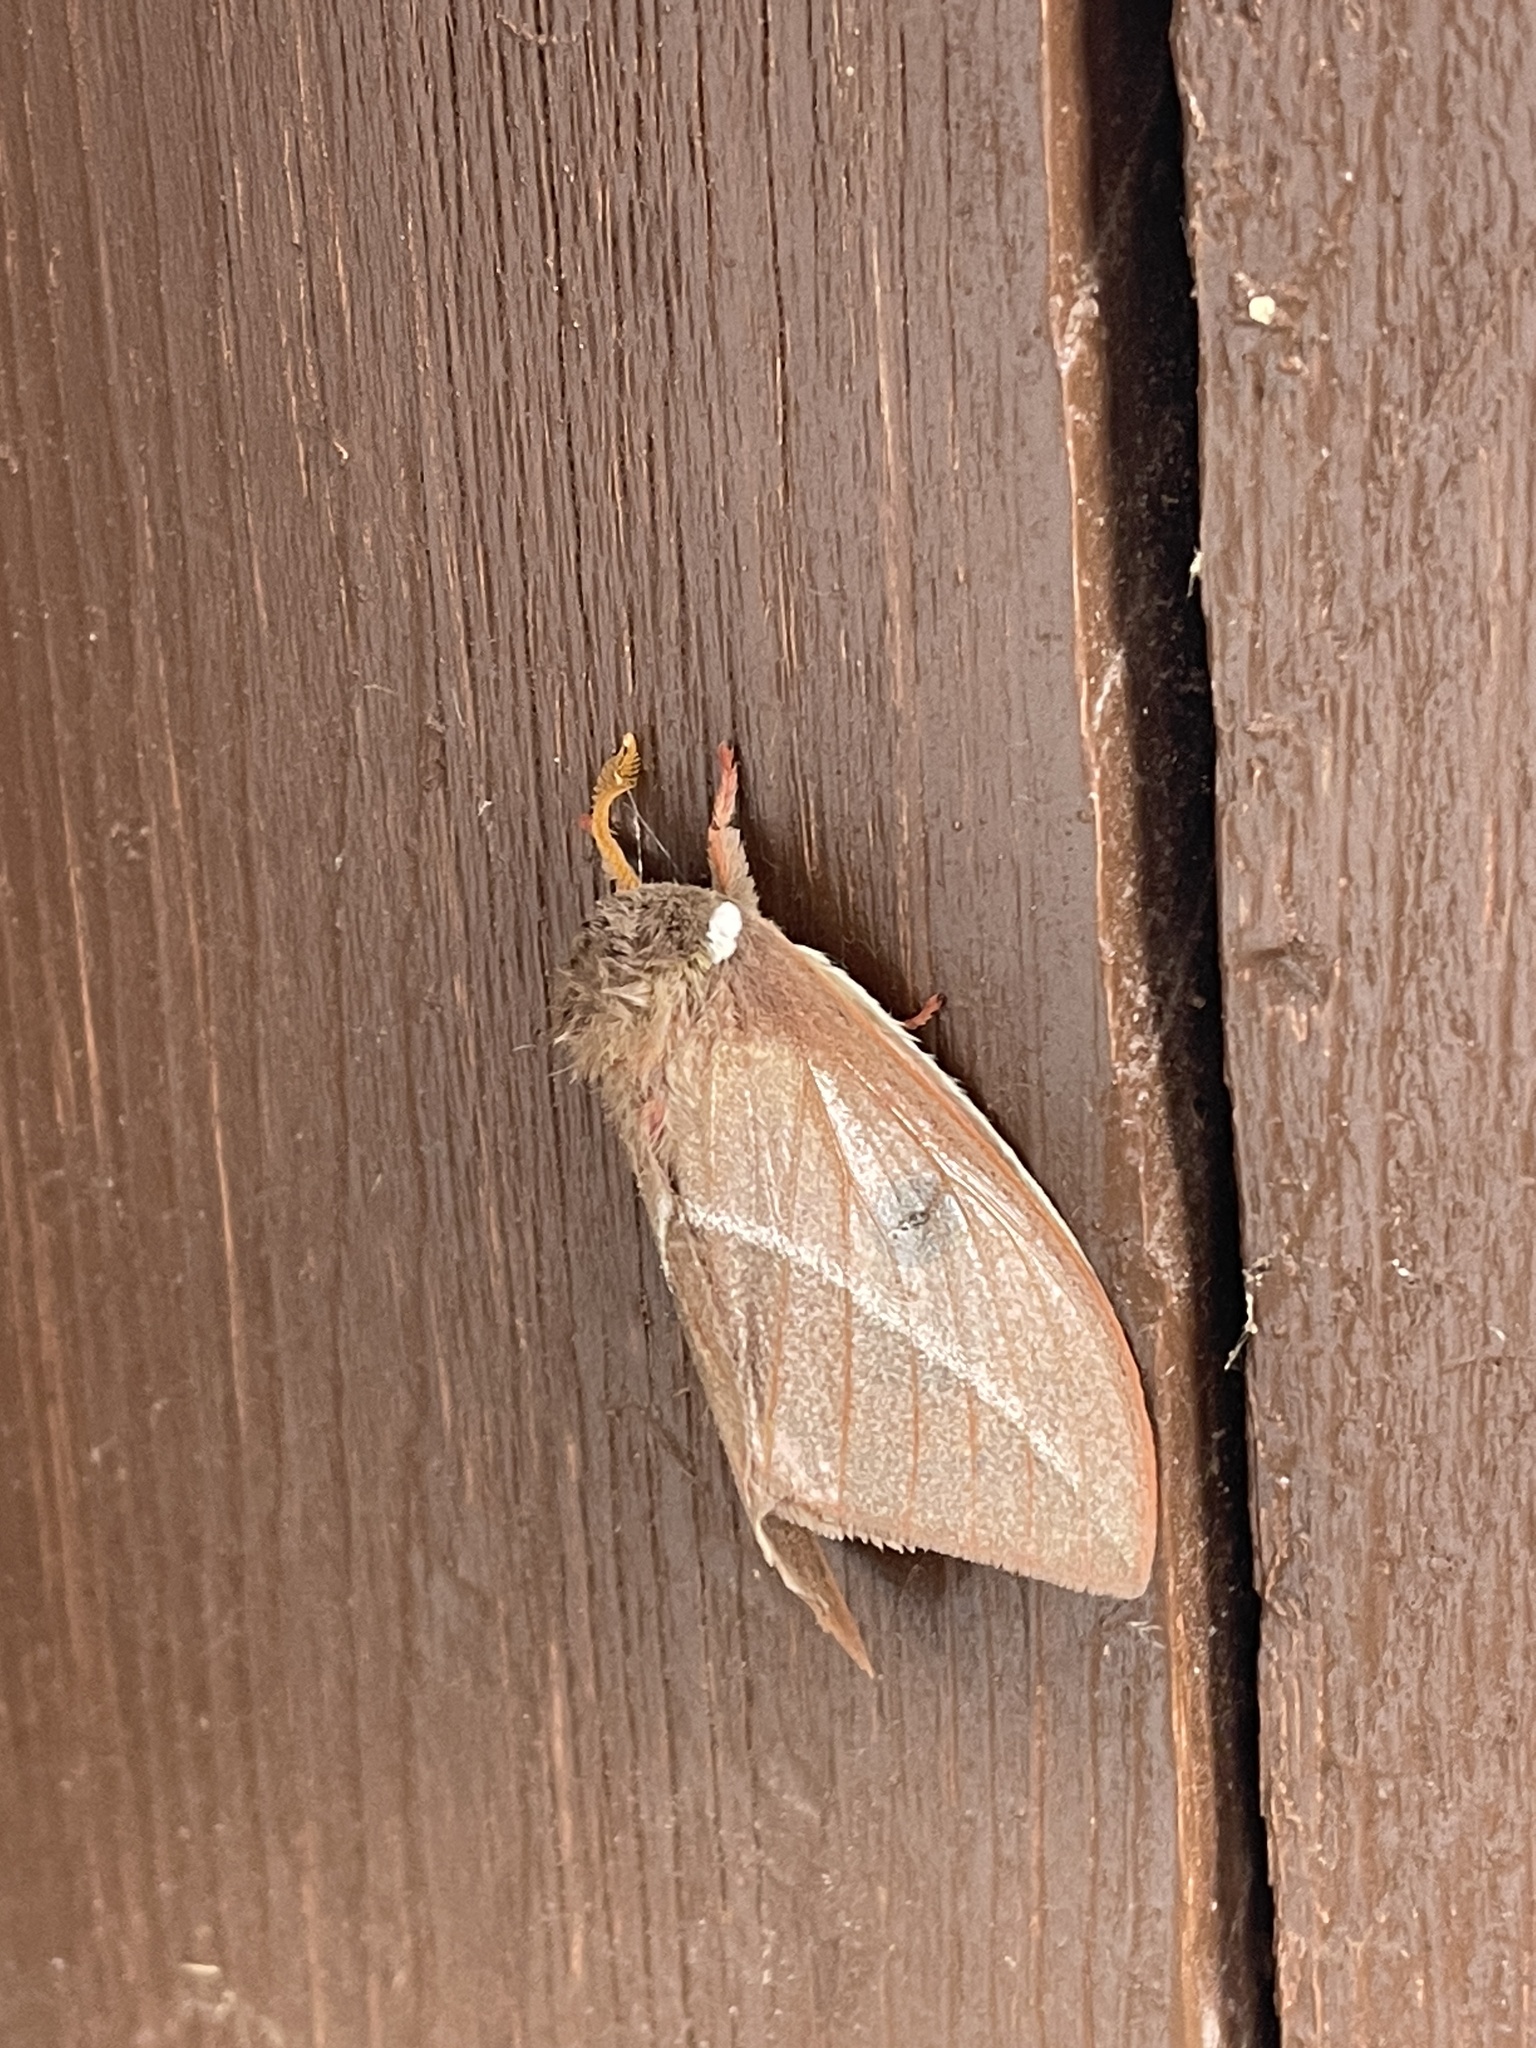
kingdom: Animalia
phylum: Arthropoda
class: Insecta
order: Lepidoptera
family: Saturniidae
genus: Automeris
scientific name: Automeris zephyria
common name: Zephyr eyed silkmoth
